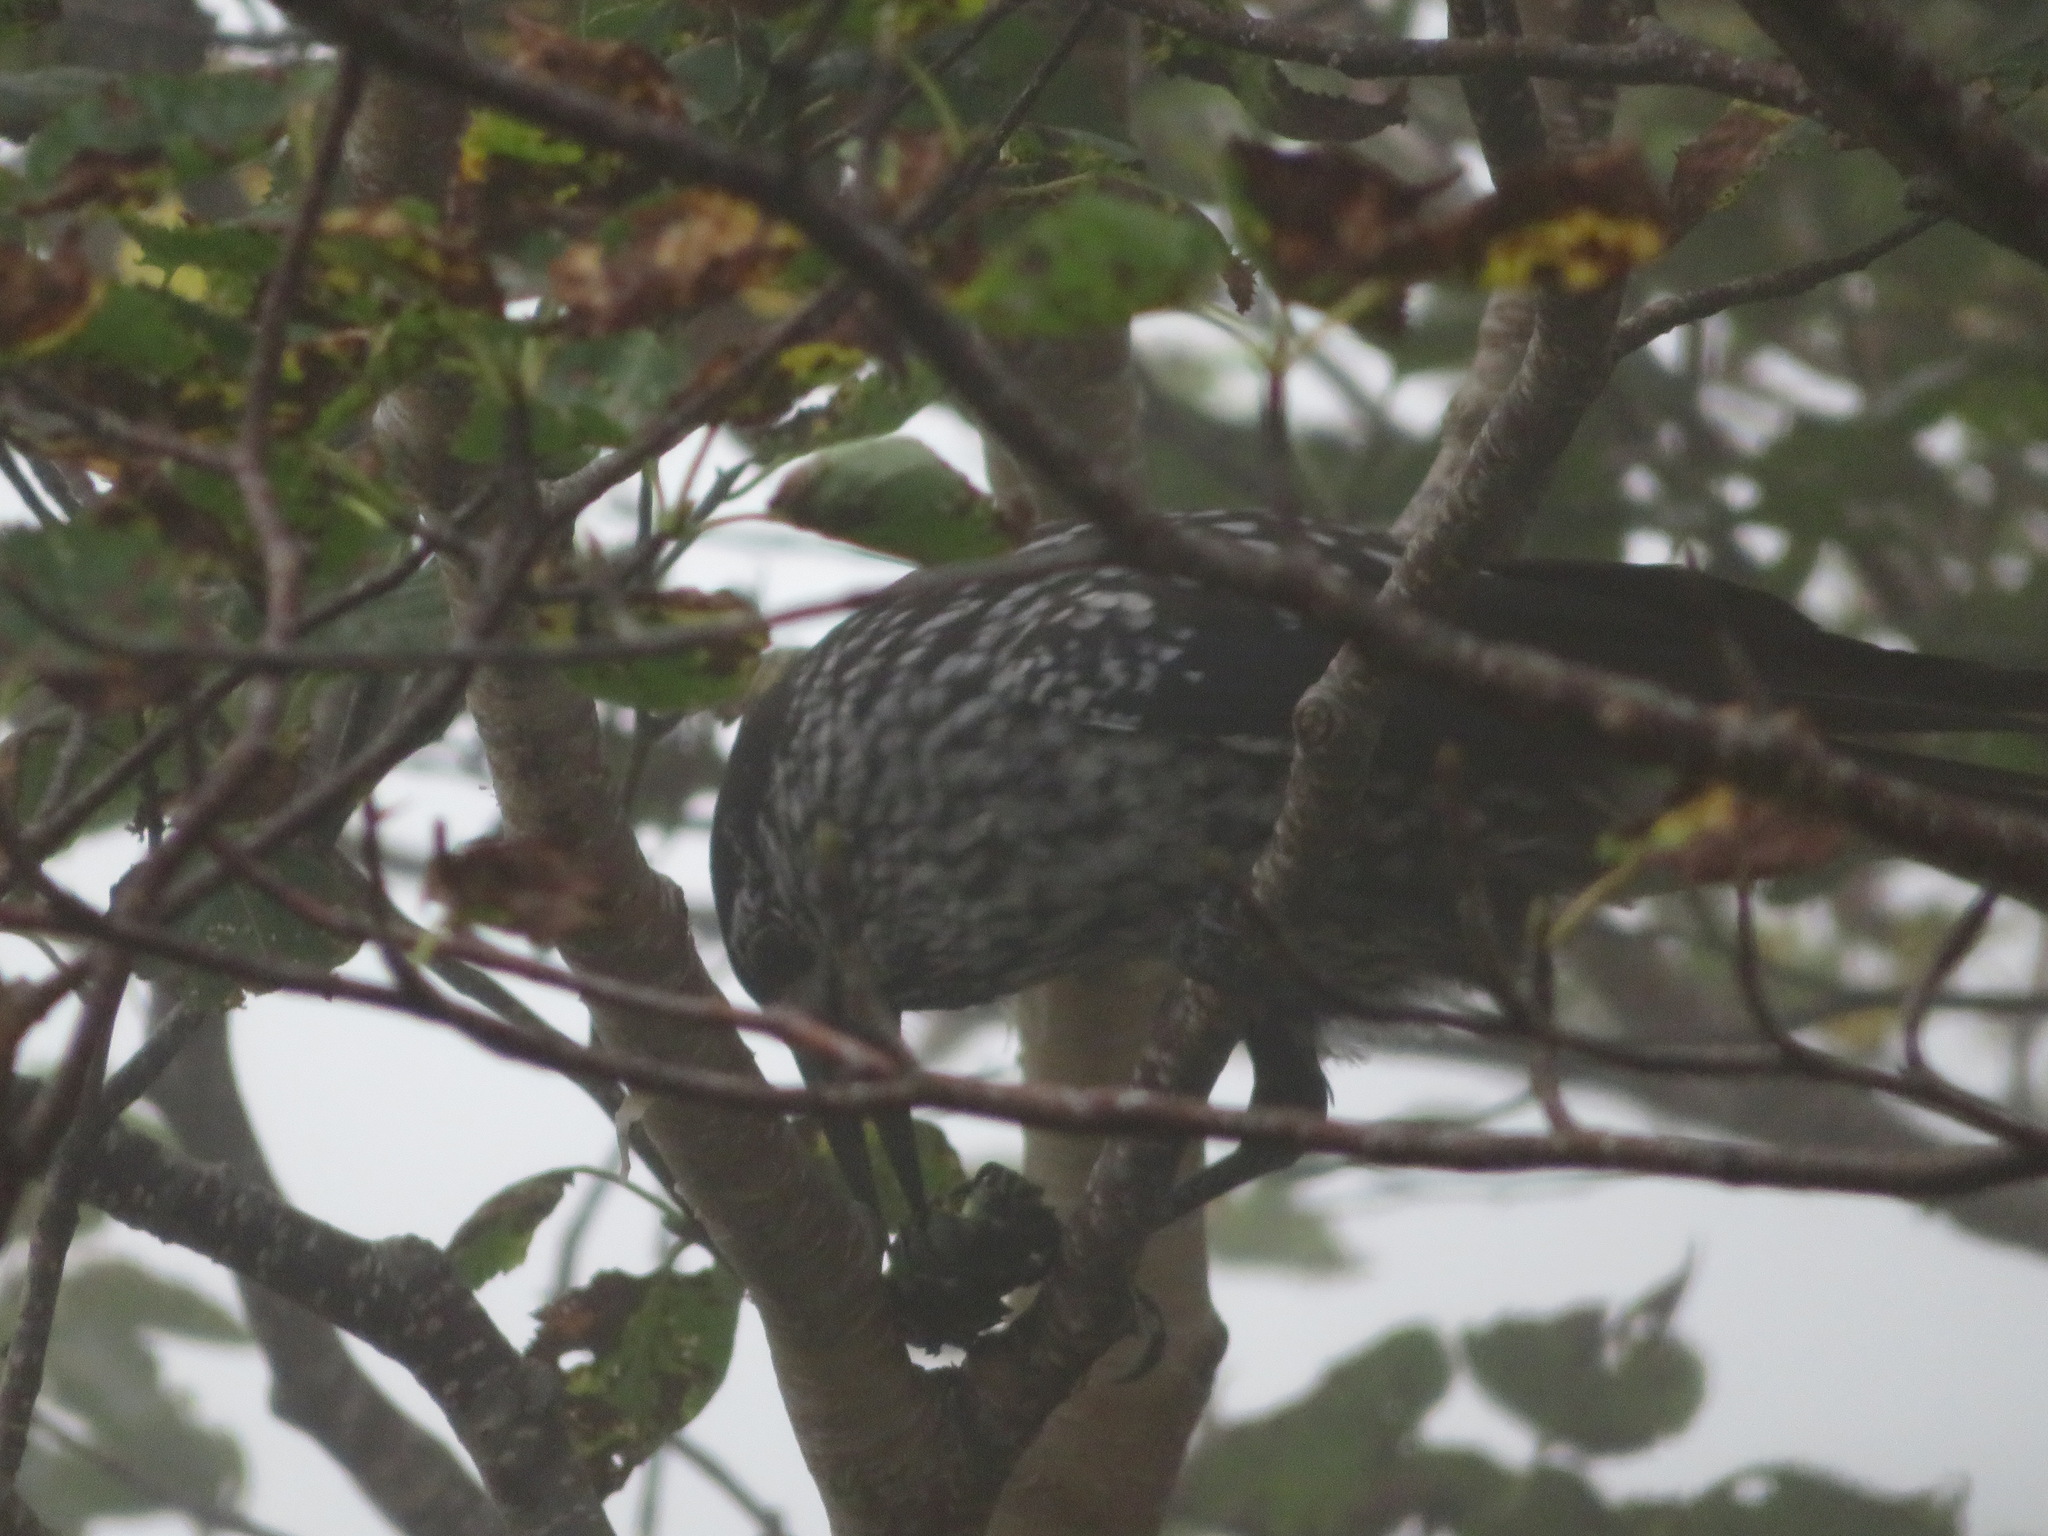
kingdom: Animalia
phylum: Chordata
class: Aves
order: Passeriformes
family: Corvidae
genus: Nucifraga
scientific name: Nucifraga caryocatactes
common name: Spotted nutcracker
